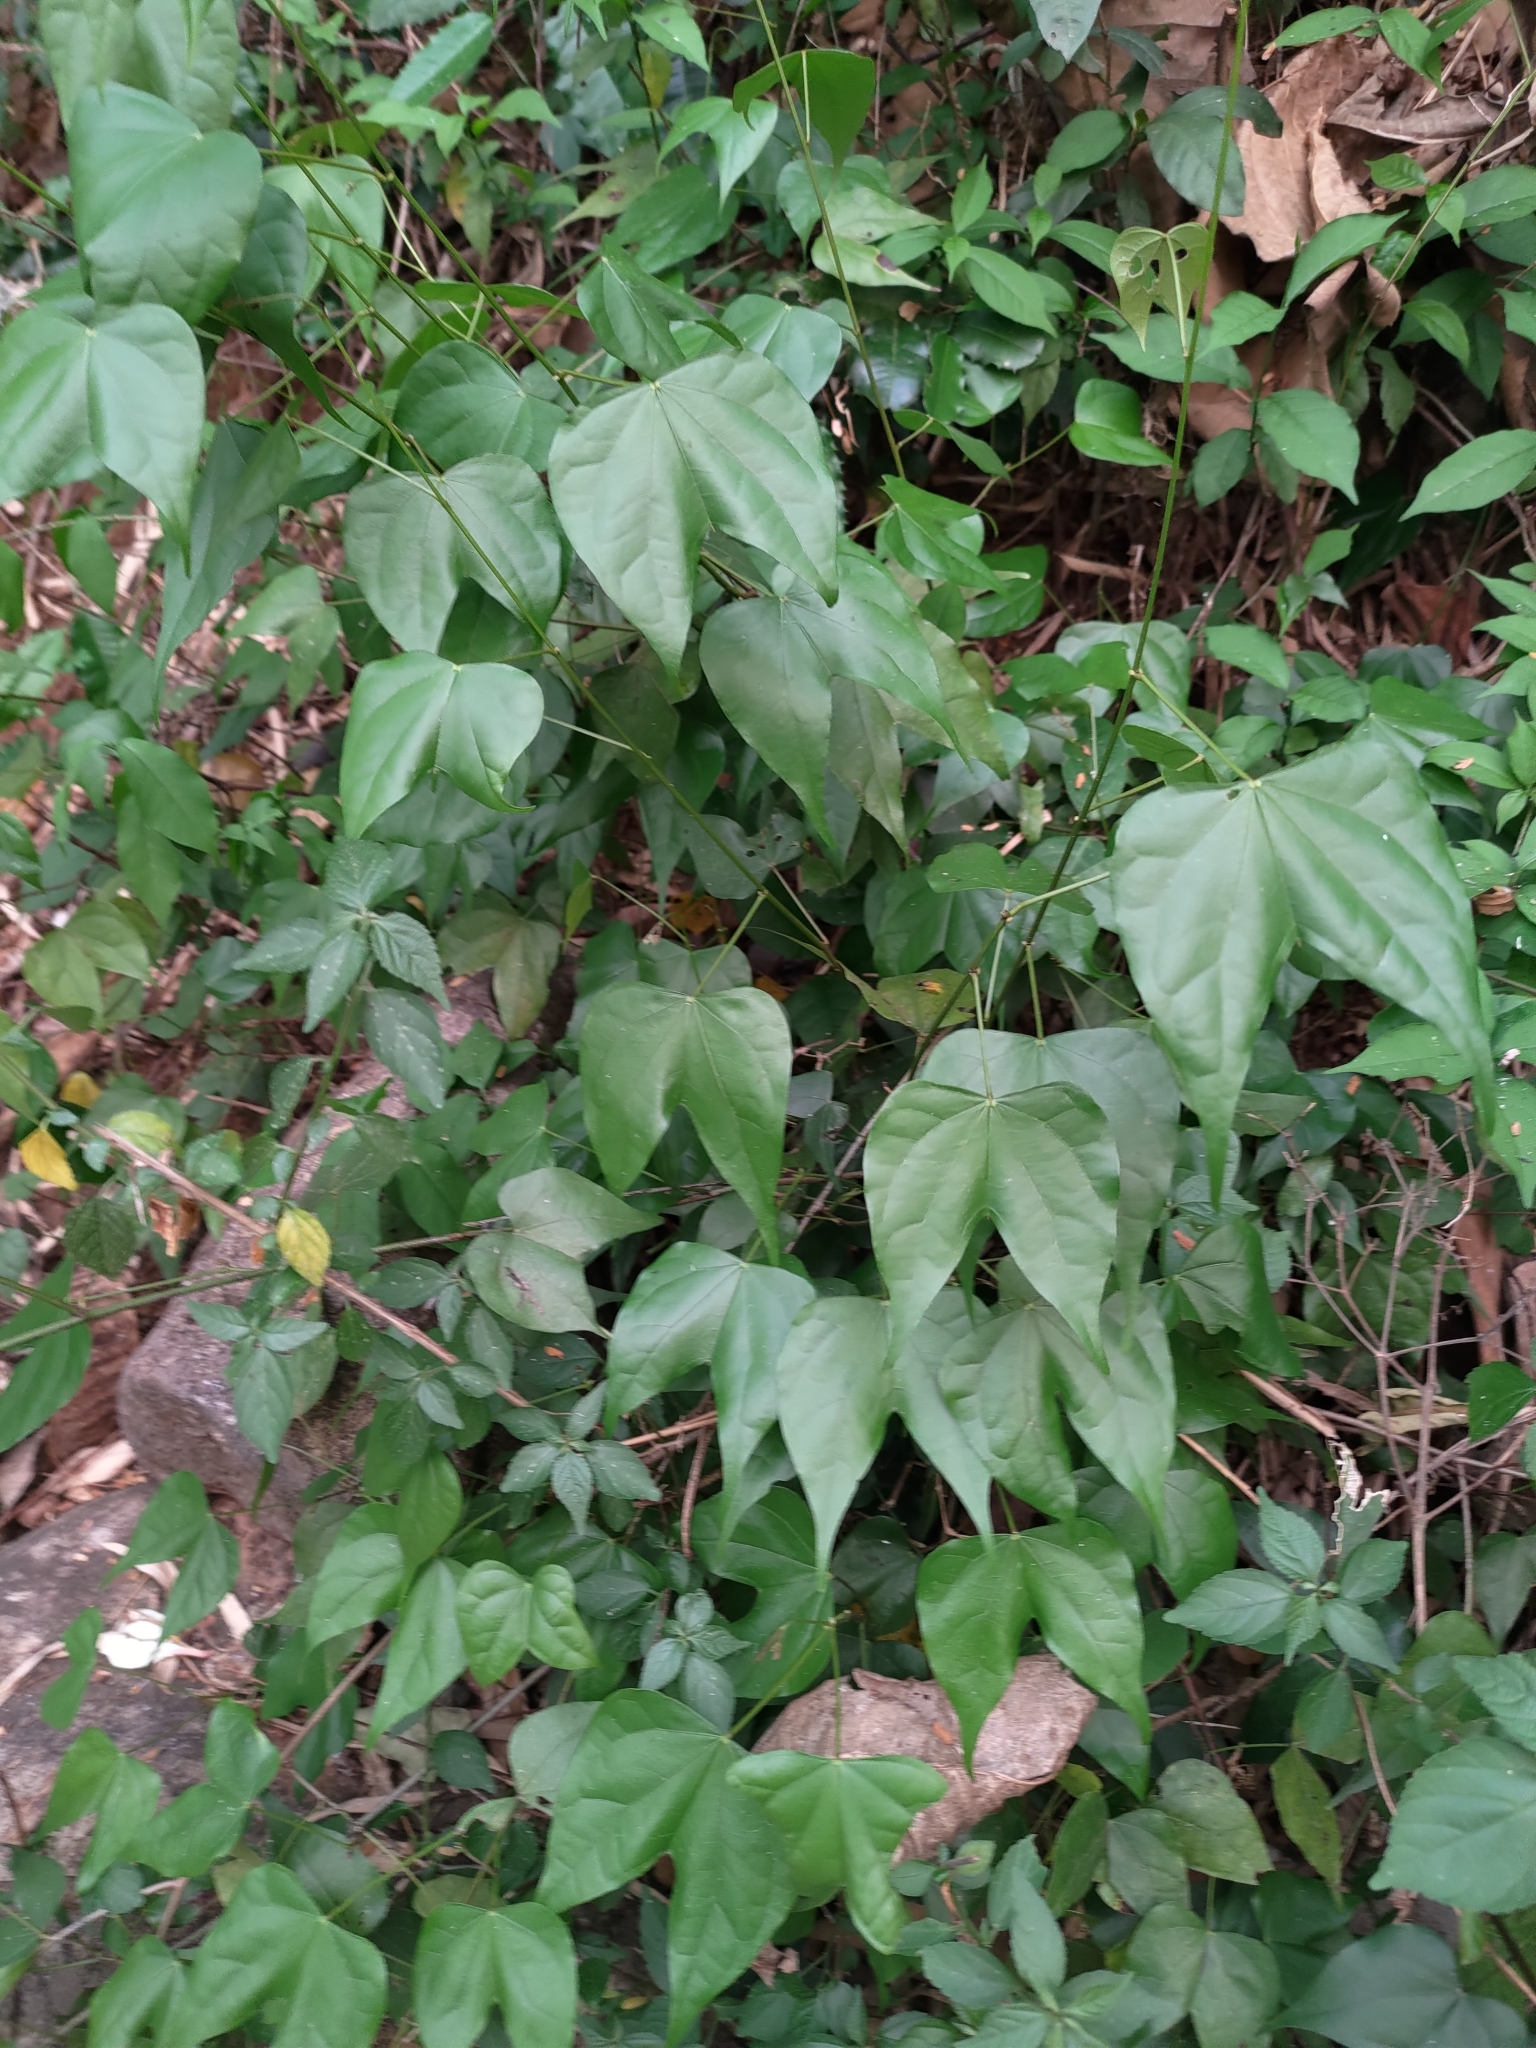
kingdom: Plantae
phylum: Tracheophyta
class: Magnoliopsida
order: Fabales
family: Fabaceae
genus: Phanera
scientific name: Phanera championii
